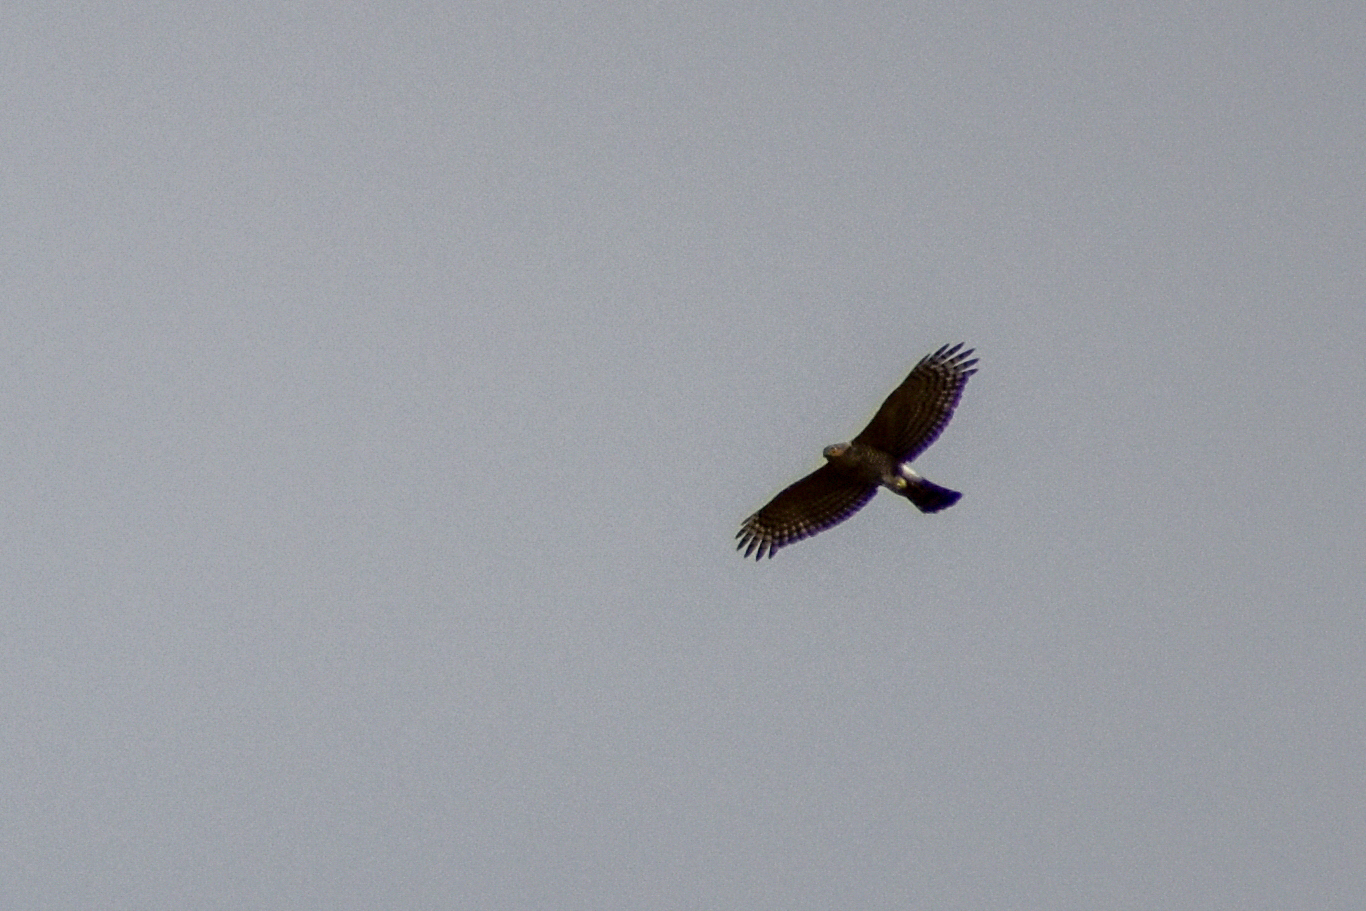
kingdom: Animalia
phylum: Chordata
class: Aves
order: Accipitriformes
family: Accipitridae
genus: Accipiter
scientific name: Accipiter striatus
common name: Sharp-shinned hawk
